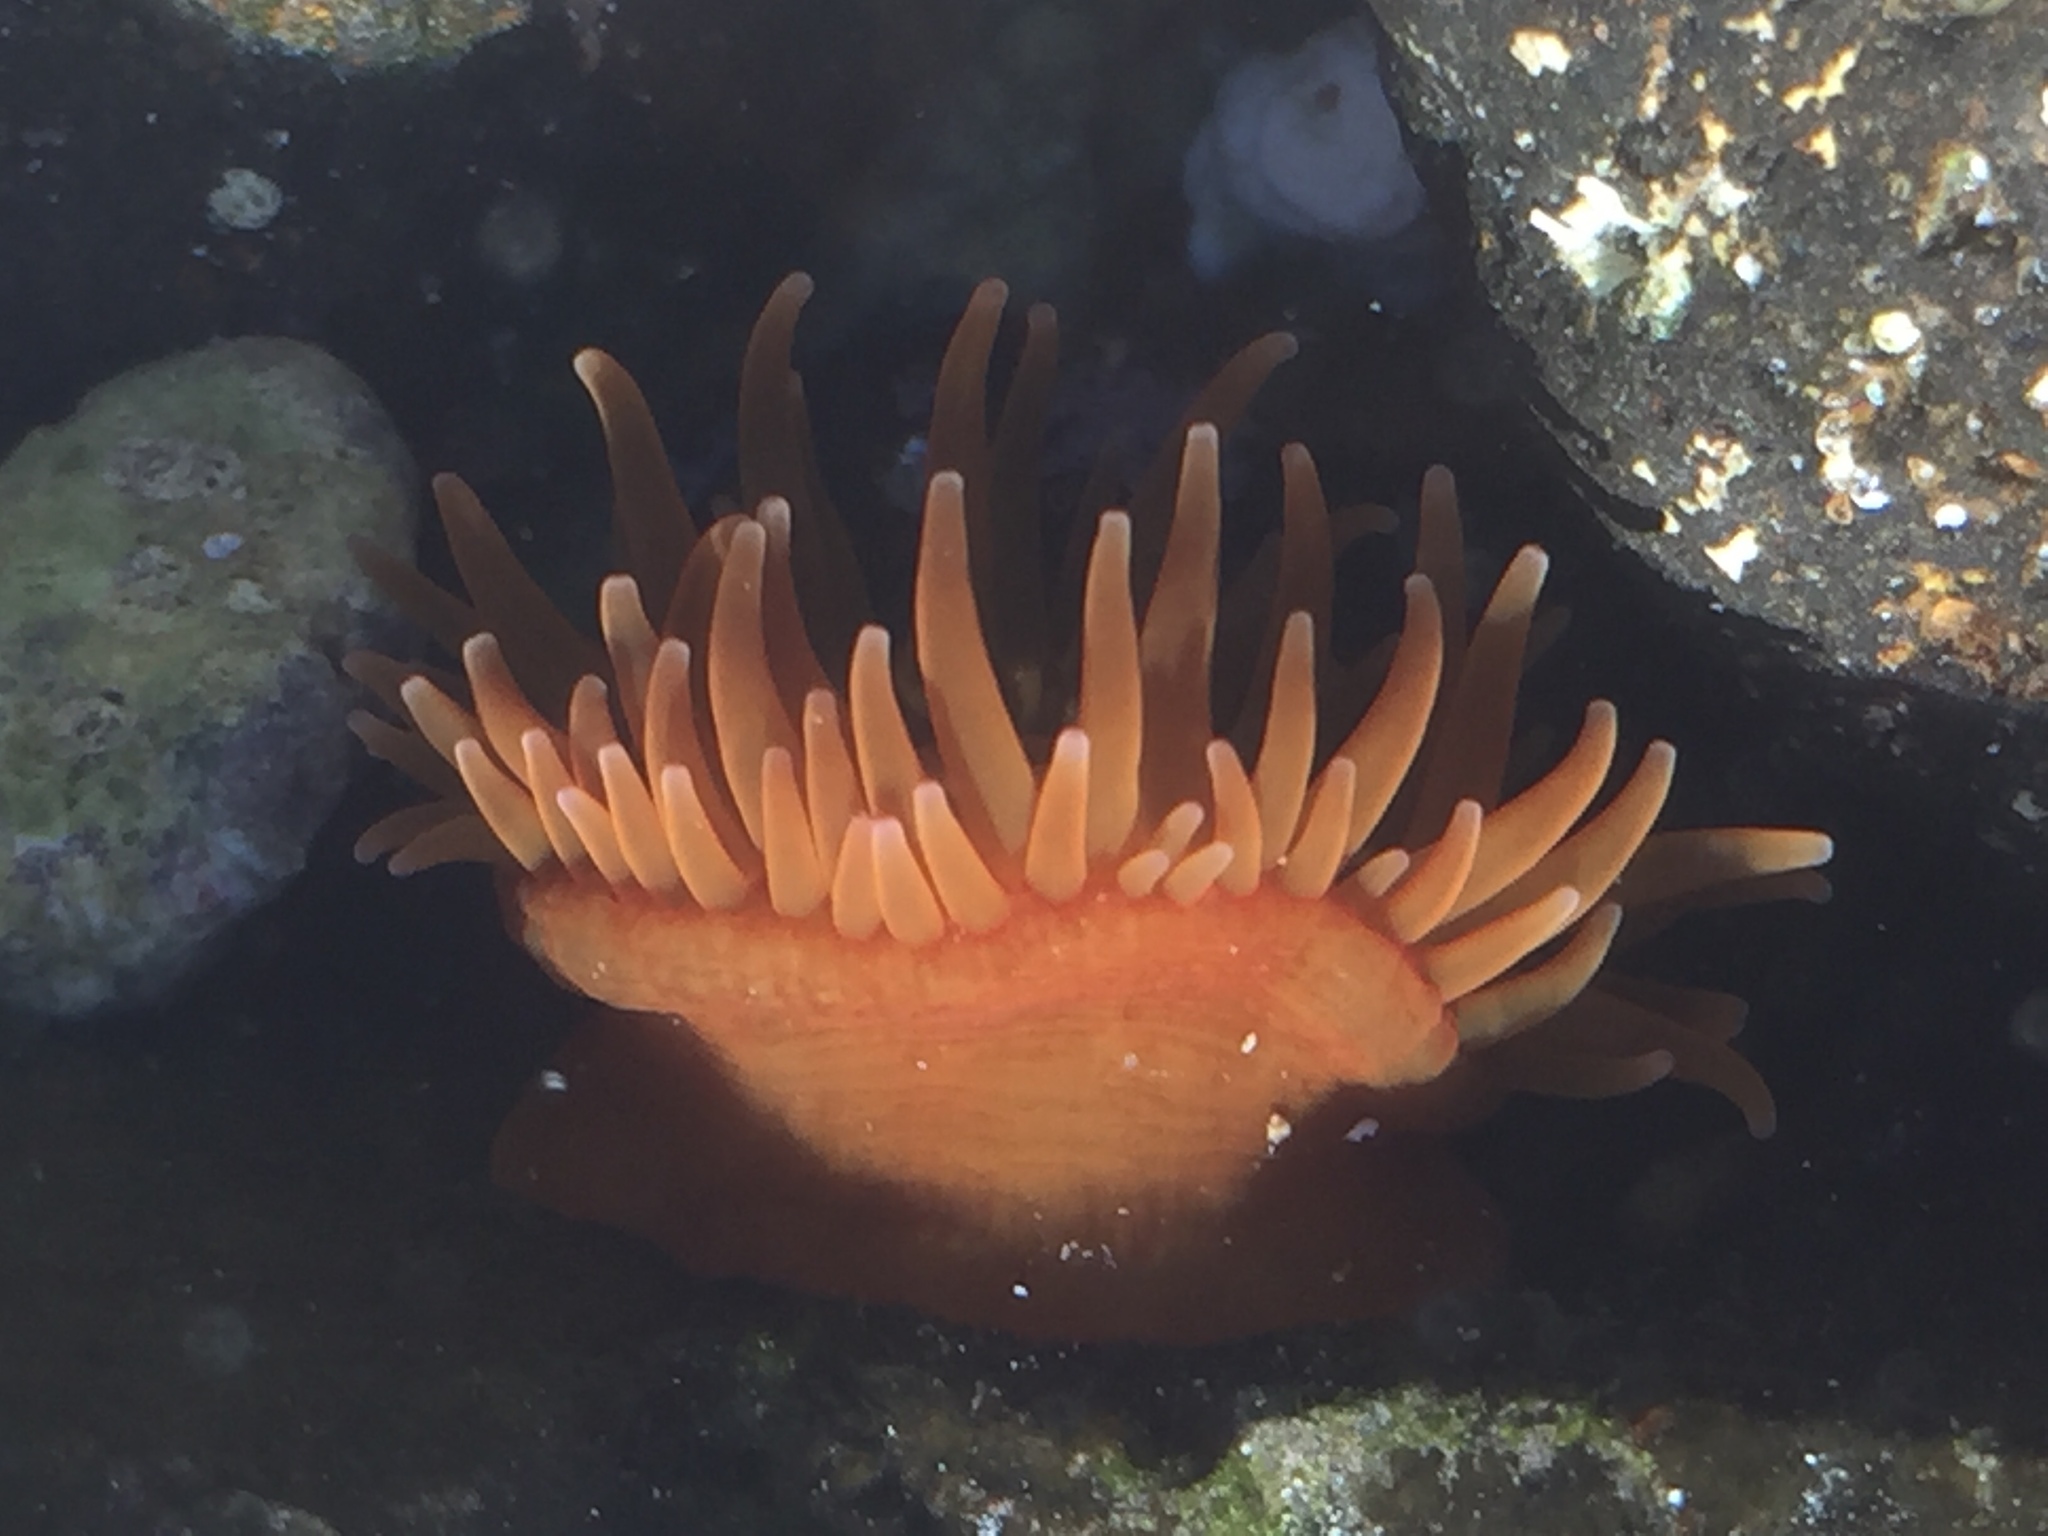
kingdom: Animalia
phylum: Cnidaria
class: Anthozoa
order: Actiniaria
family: Actiniidae
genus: Anemonia
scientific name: Anemonia sargassensis
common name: Sargassum anemone
